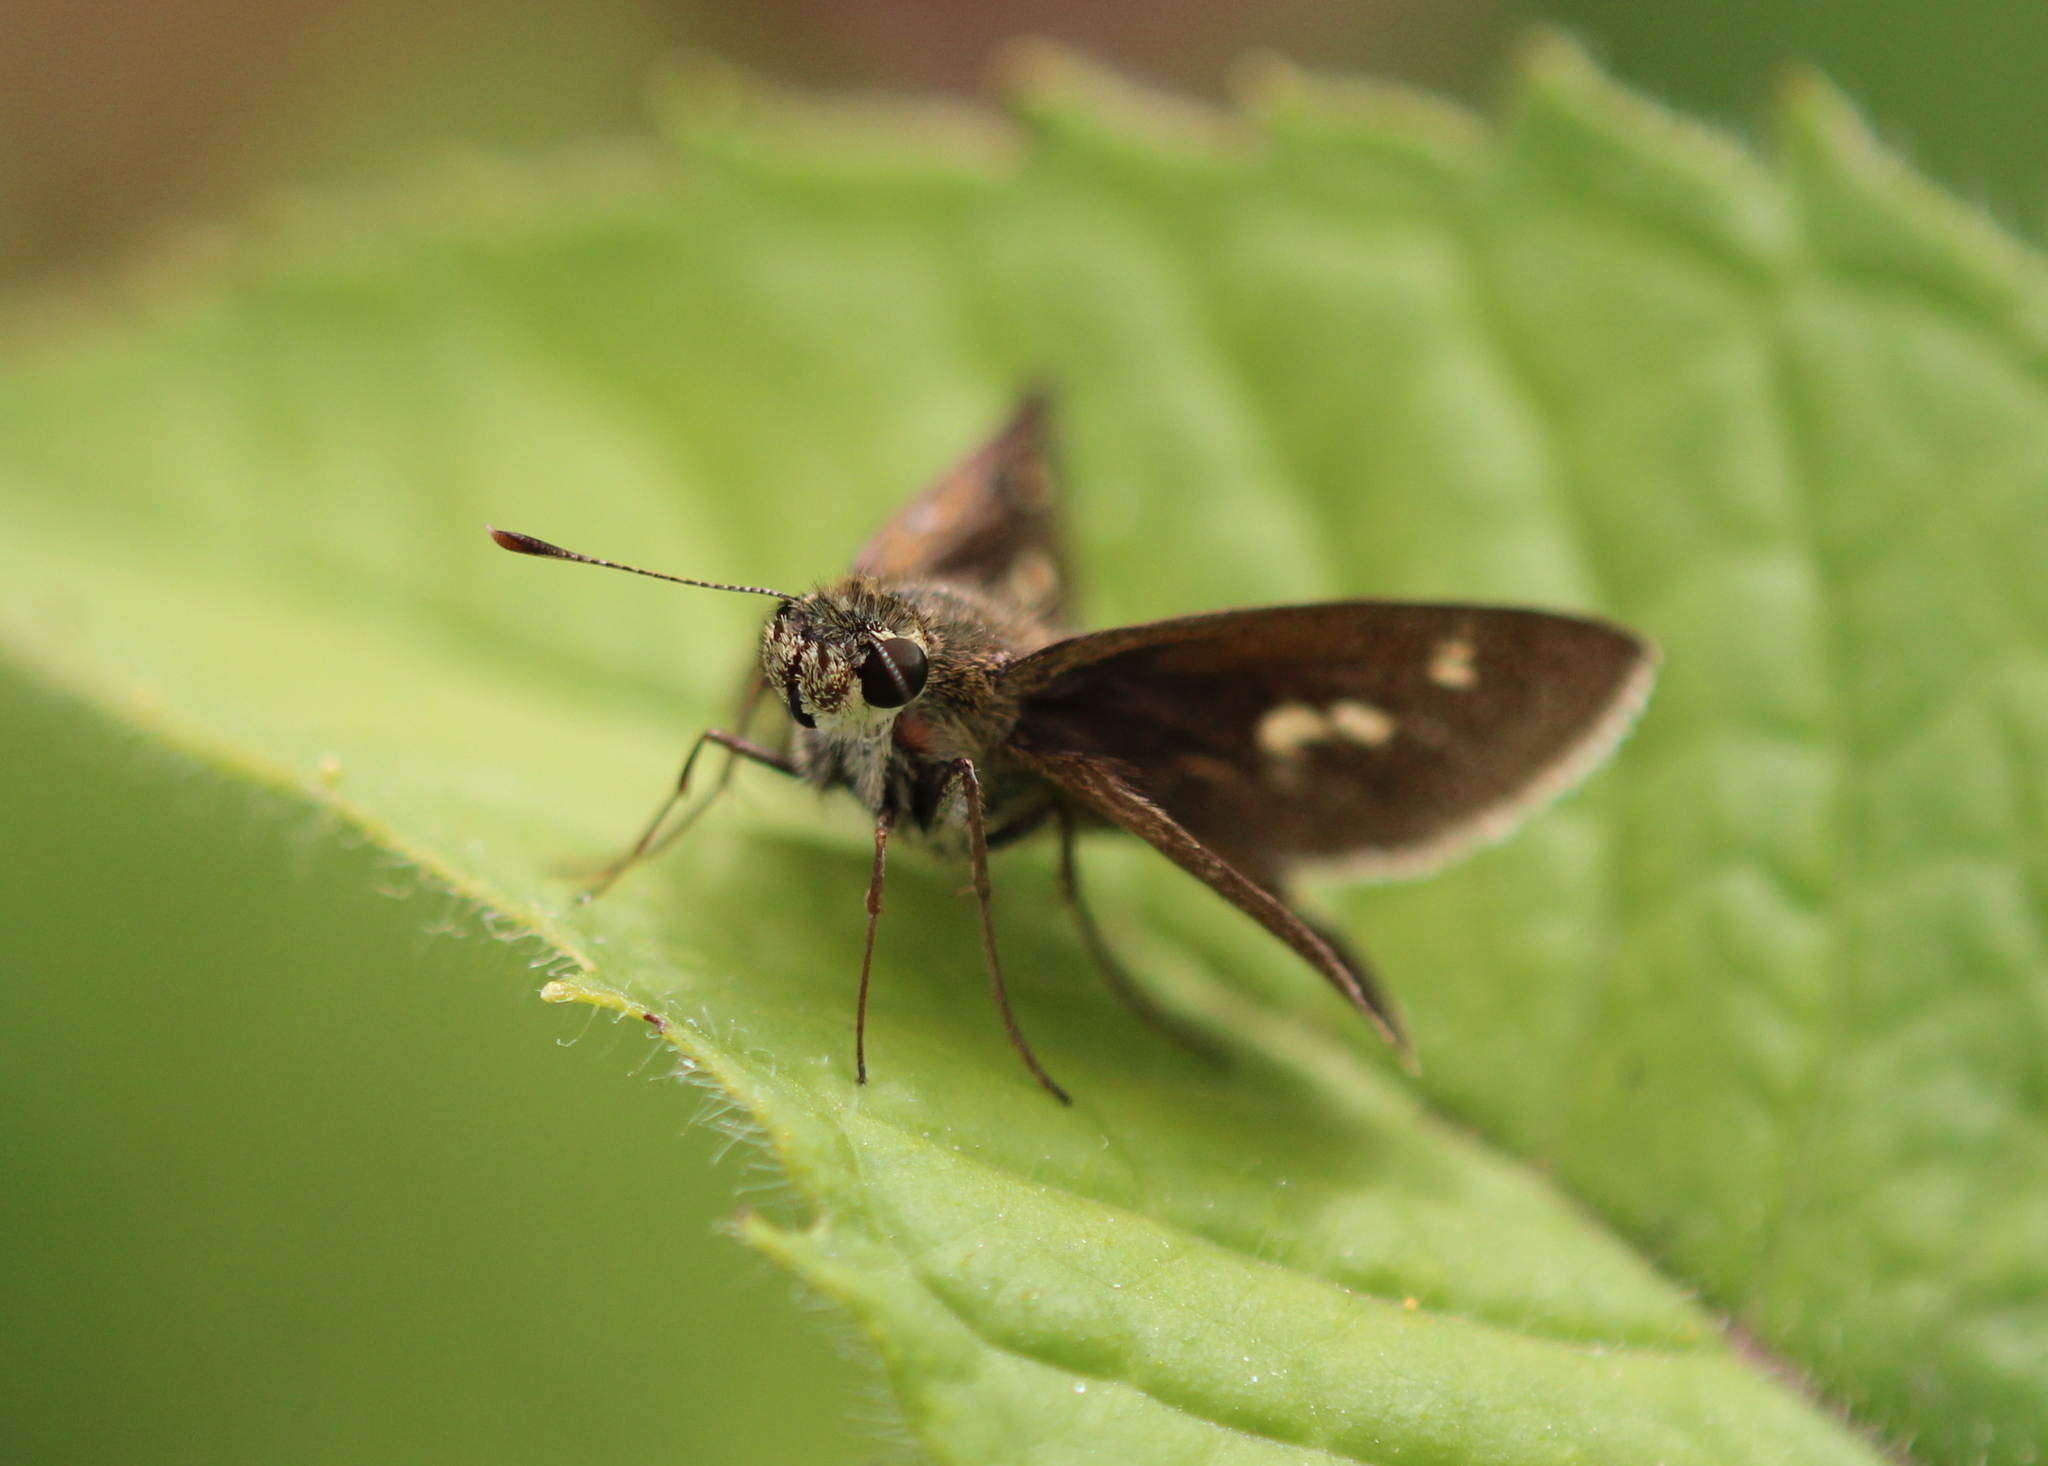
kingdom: Animalia
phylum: Arthropoda
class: Insecta
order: Lepidoptera
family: Hesperiidae
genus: Polites
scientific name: Polites egeremet
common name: Northern broken-dash
